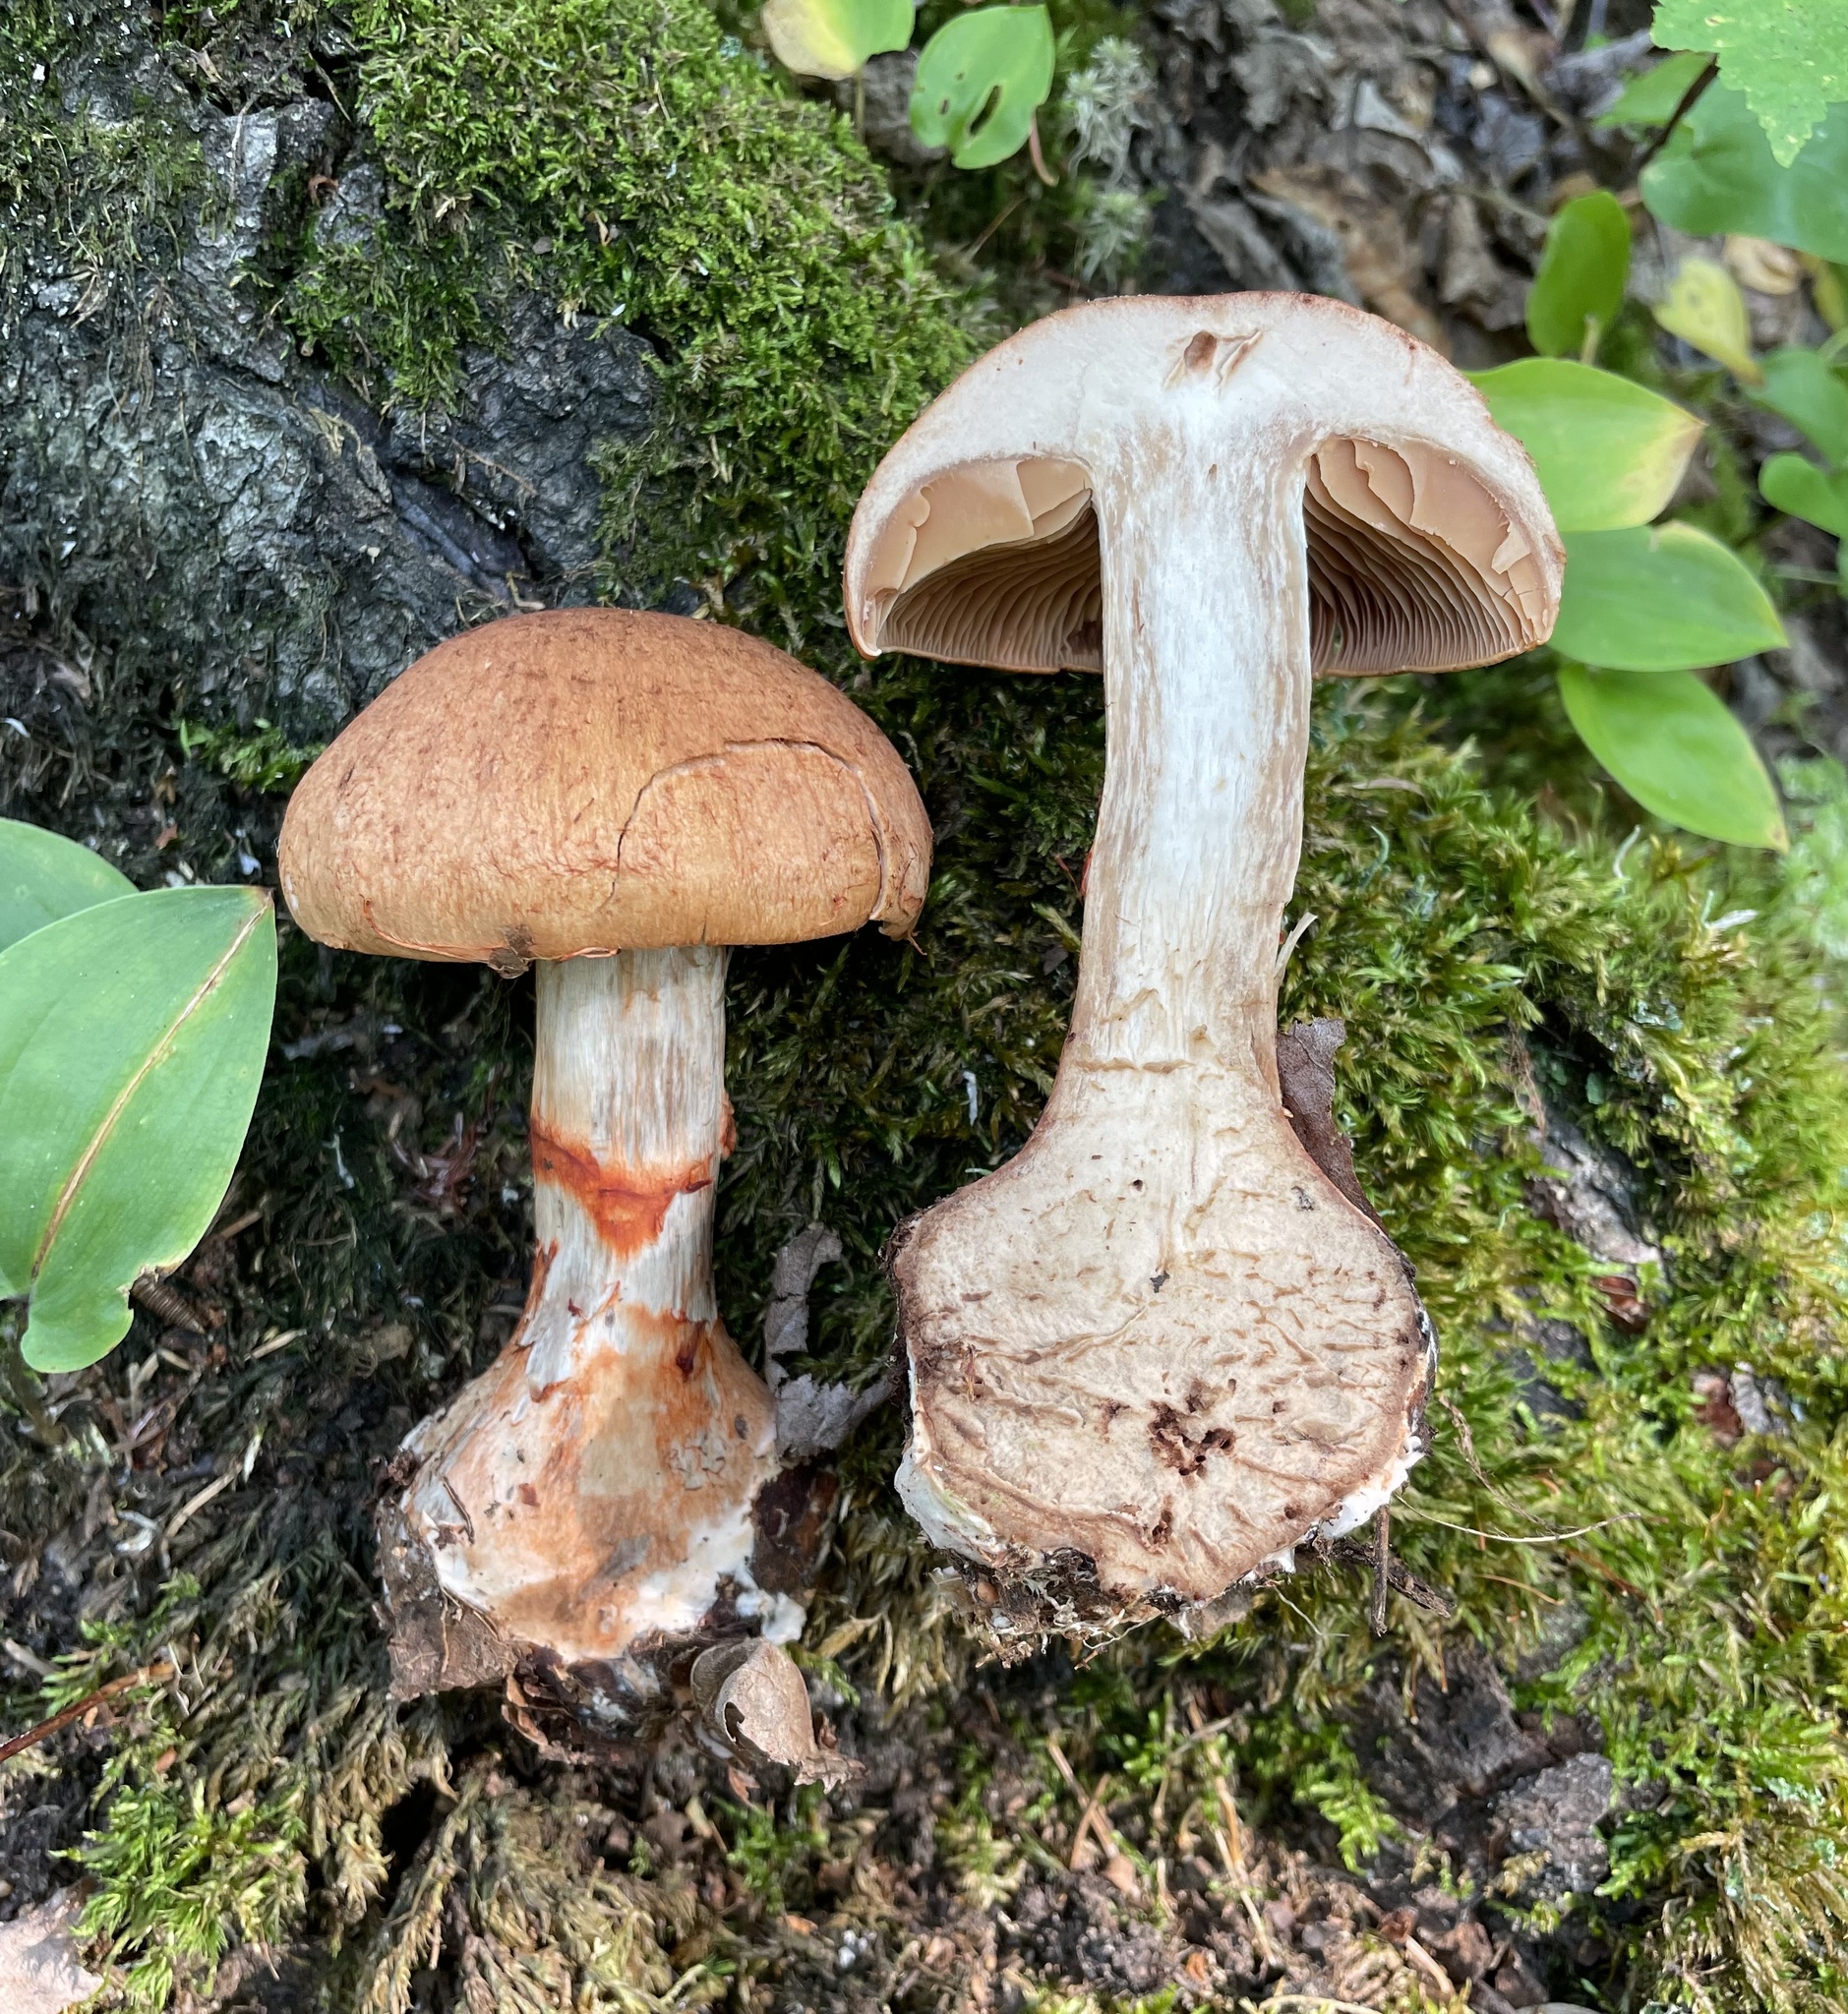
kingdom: Fungi
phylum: Basidiomycota
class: Agaricomycetes
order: Agaricales
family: Cortinariaceae
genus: Cortinarius
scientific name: Cortinarius armillatus
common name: Red banded webcap
